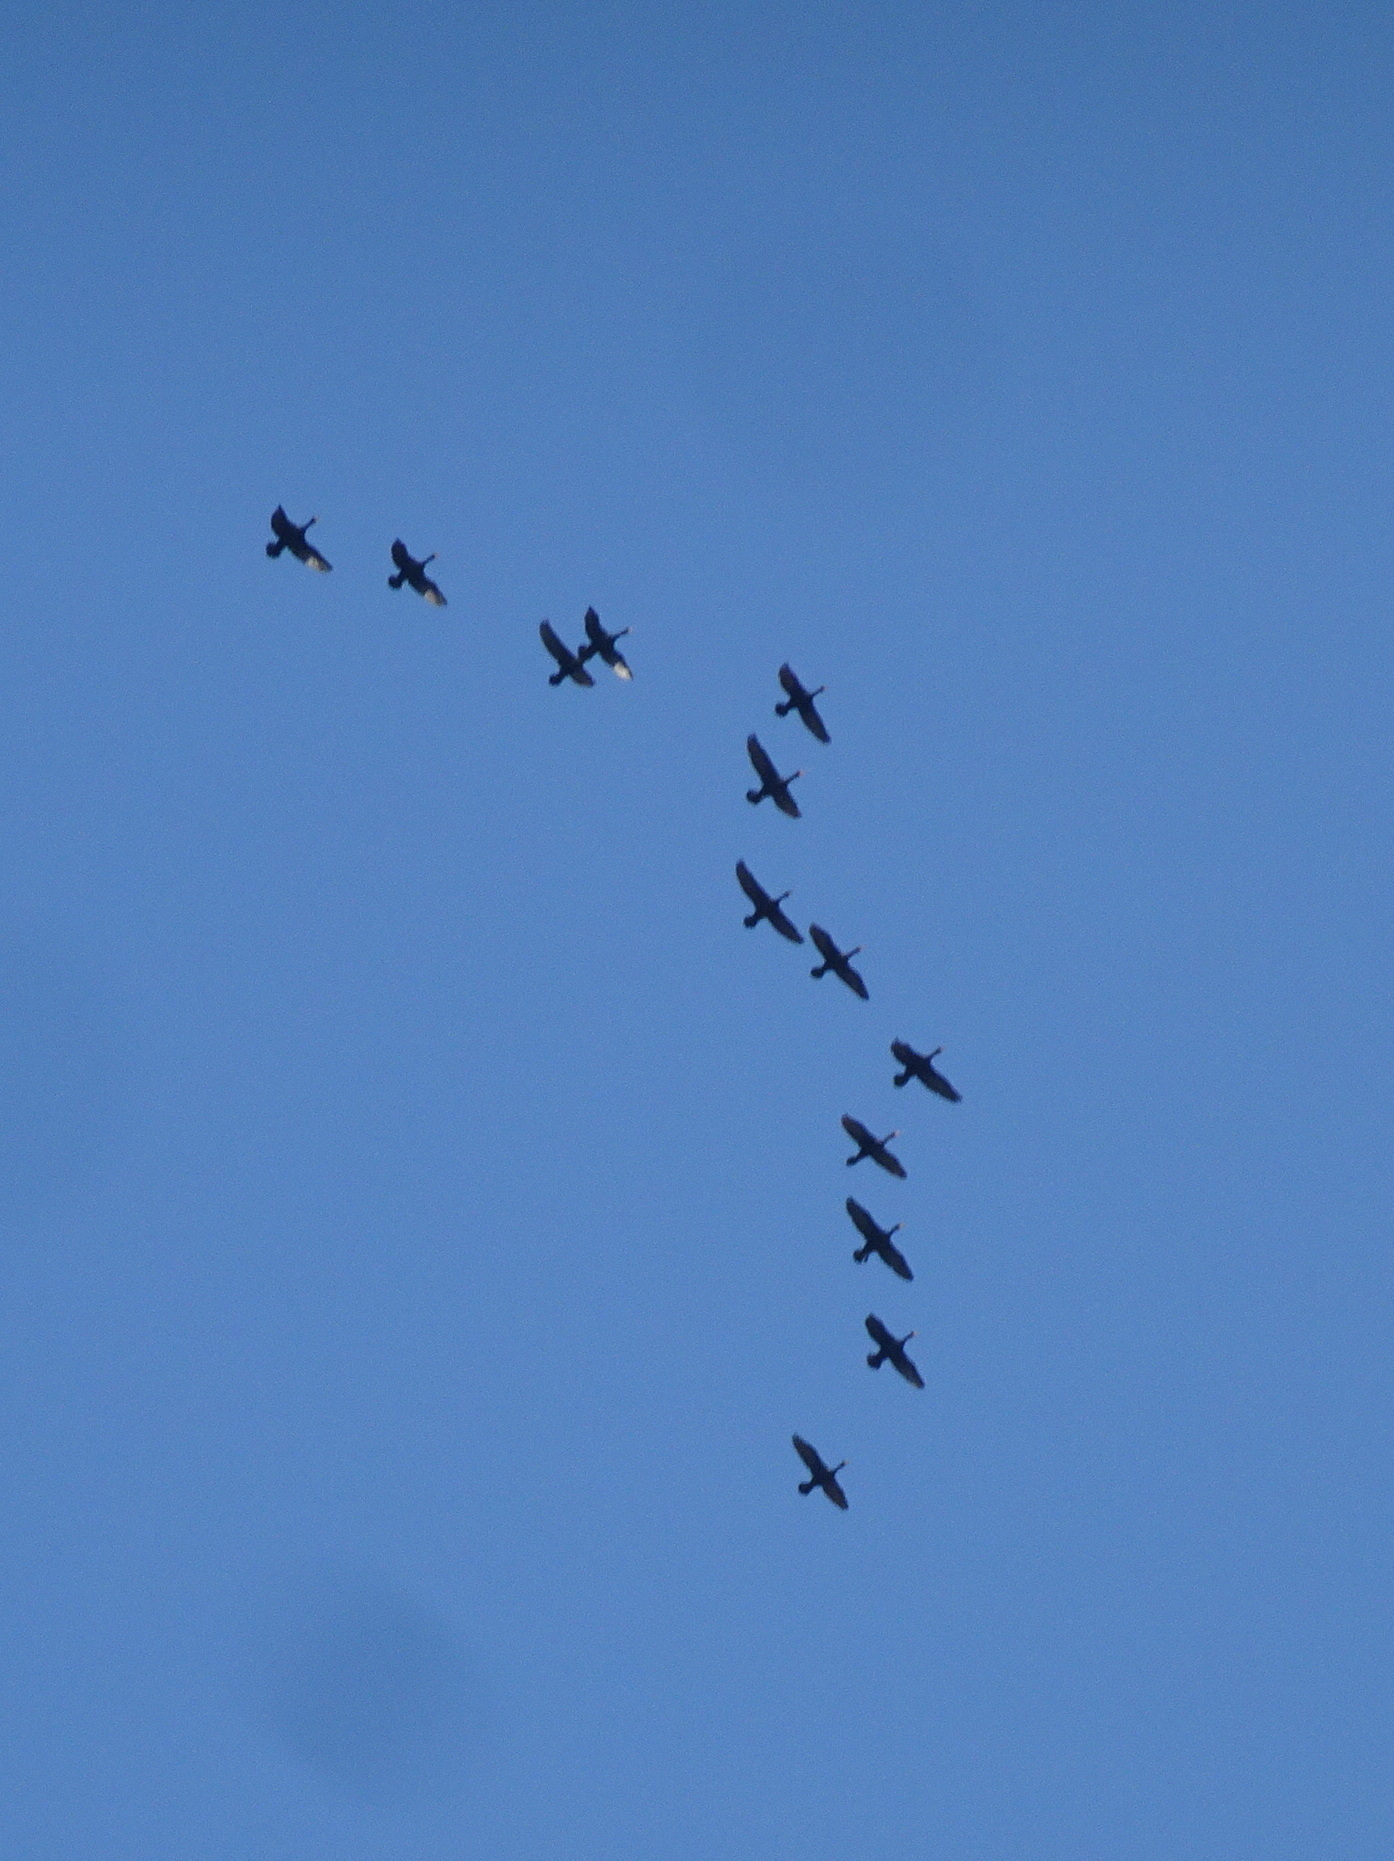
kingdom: Animalia
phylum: Chordata
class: Aves
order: Suliformes
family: Phalacrocoracidae
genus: Phalacrocorax
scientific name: Phalacrocorax auritus
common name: Double-crested cormorant
